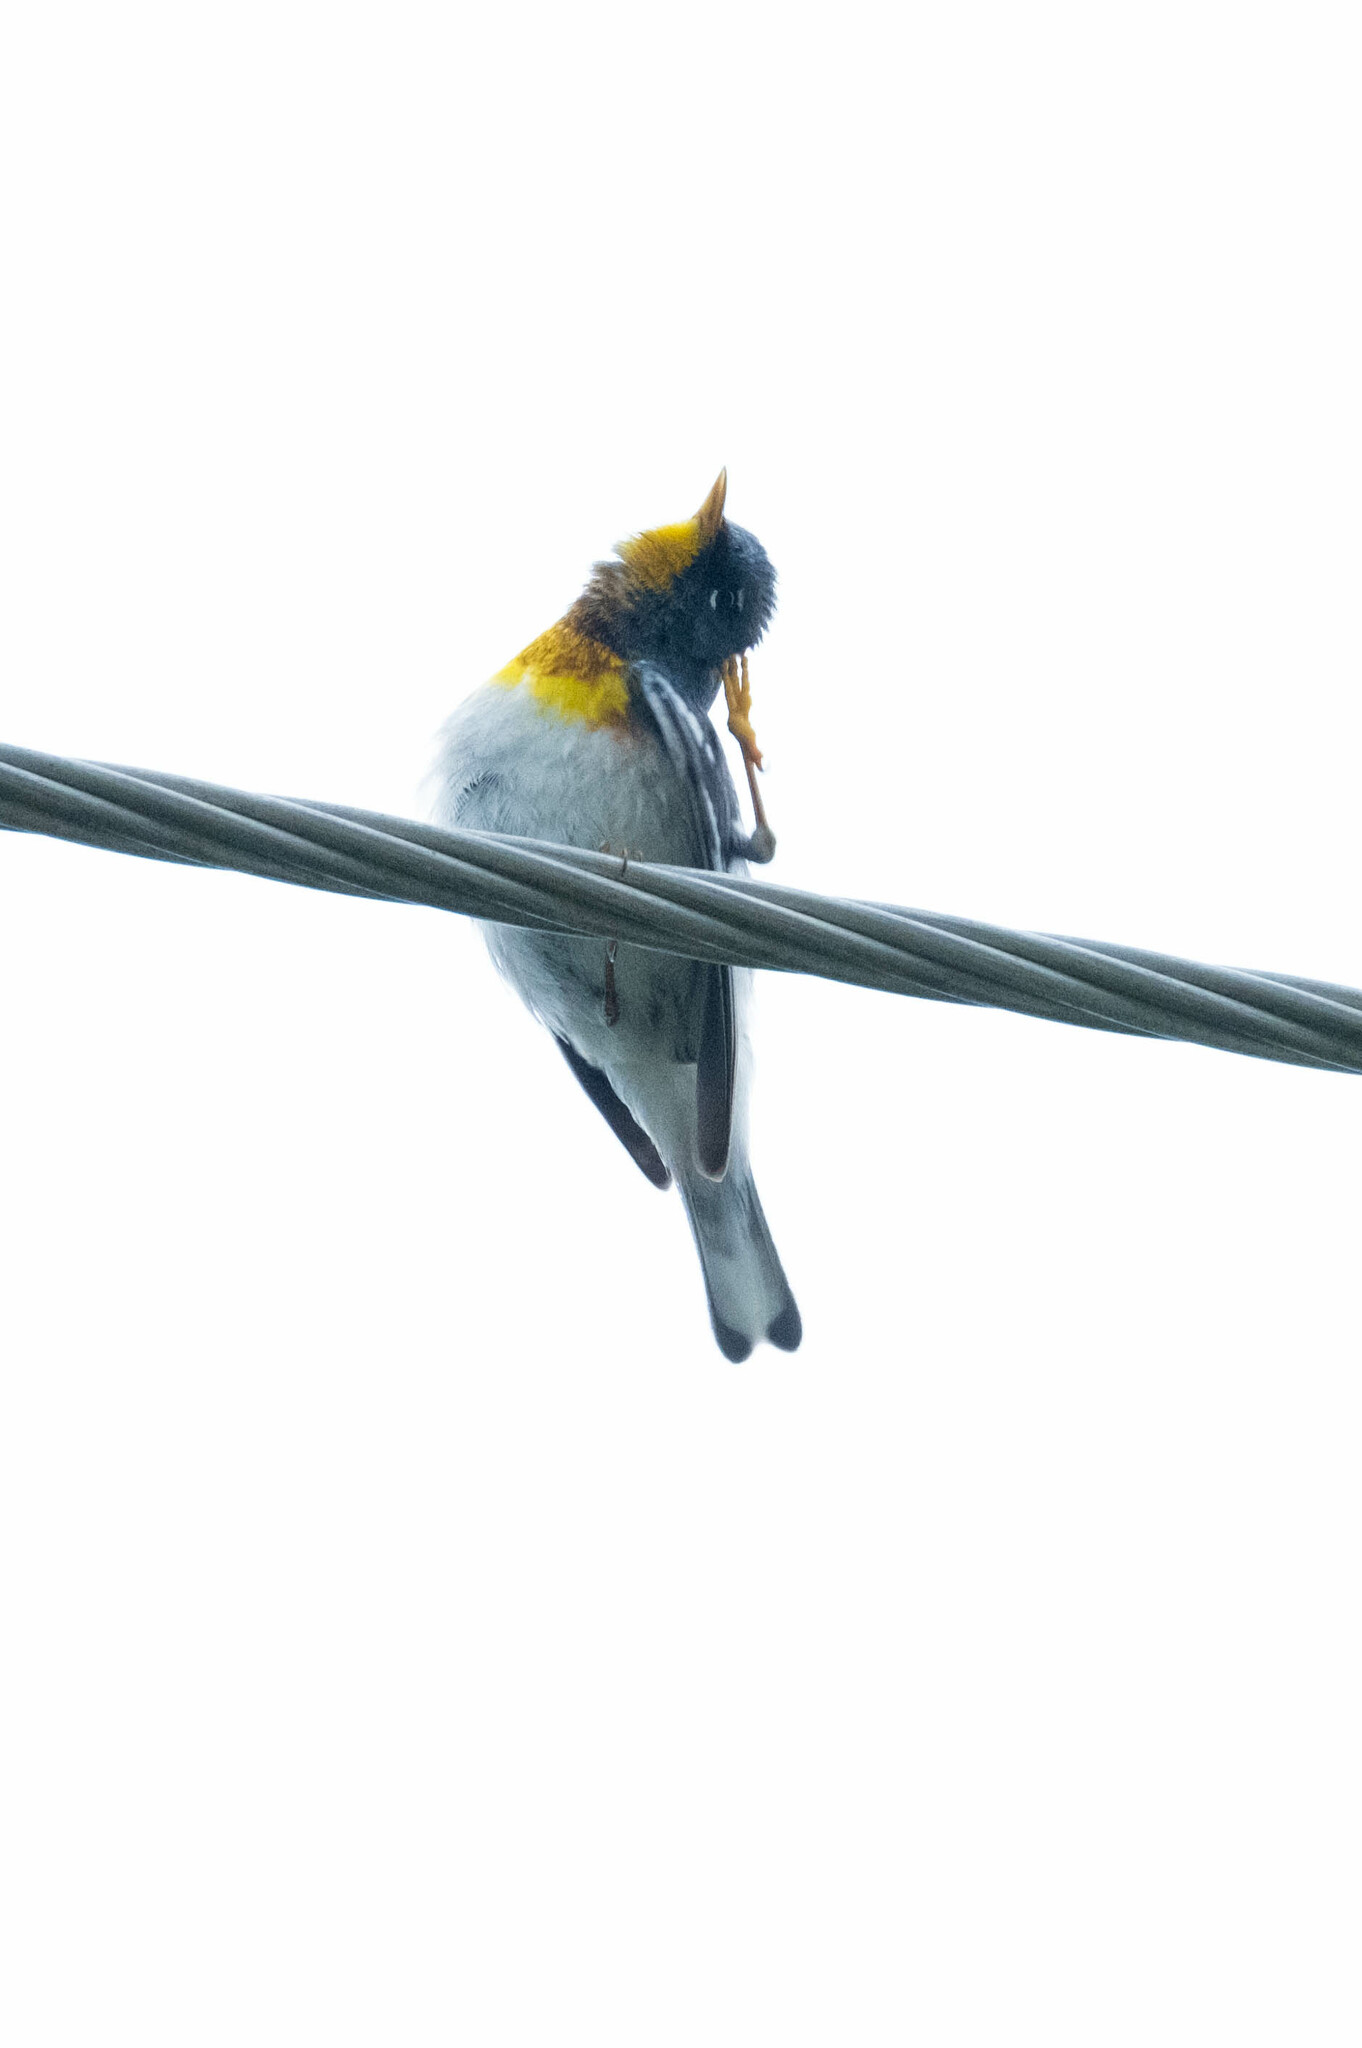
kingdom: Animalia
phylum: Chordata
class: Aves
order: Passeriformes
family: Parulidae
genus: Setophaga
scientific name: Setophaga americana
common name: Northern parula
